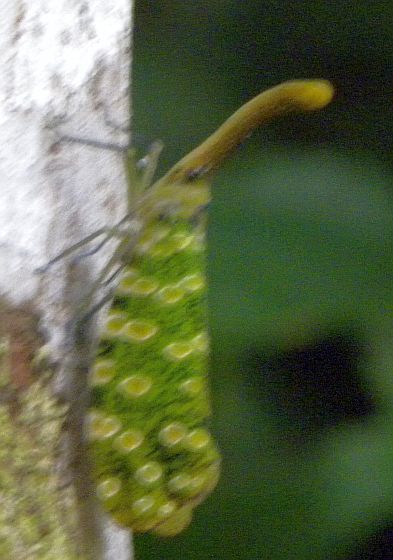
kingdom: Animalia
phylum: Arthropoda
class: Insecta
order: Hemiptera
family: Fulgoridae
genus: Pyrops
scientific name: Pyrops sidereus
